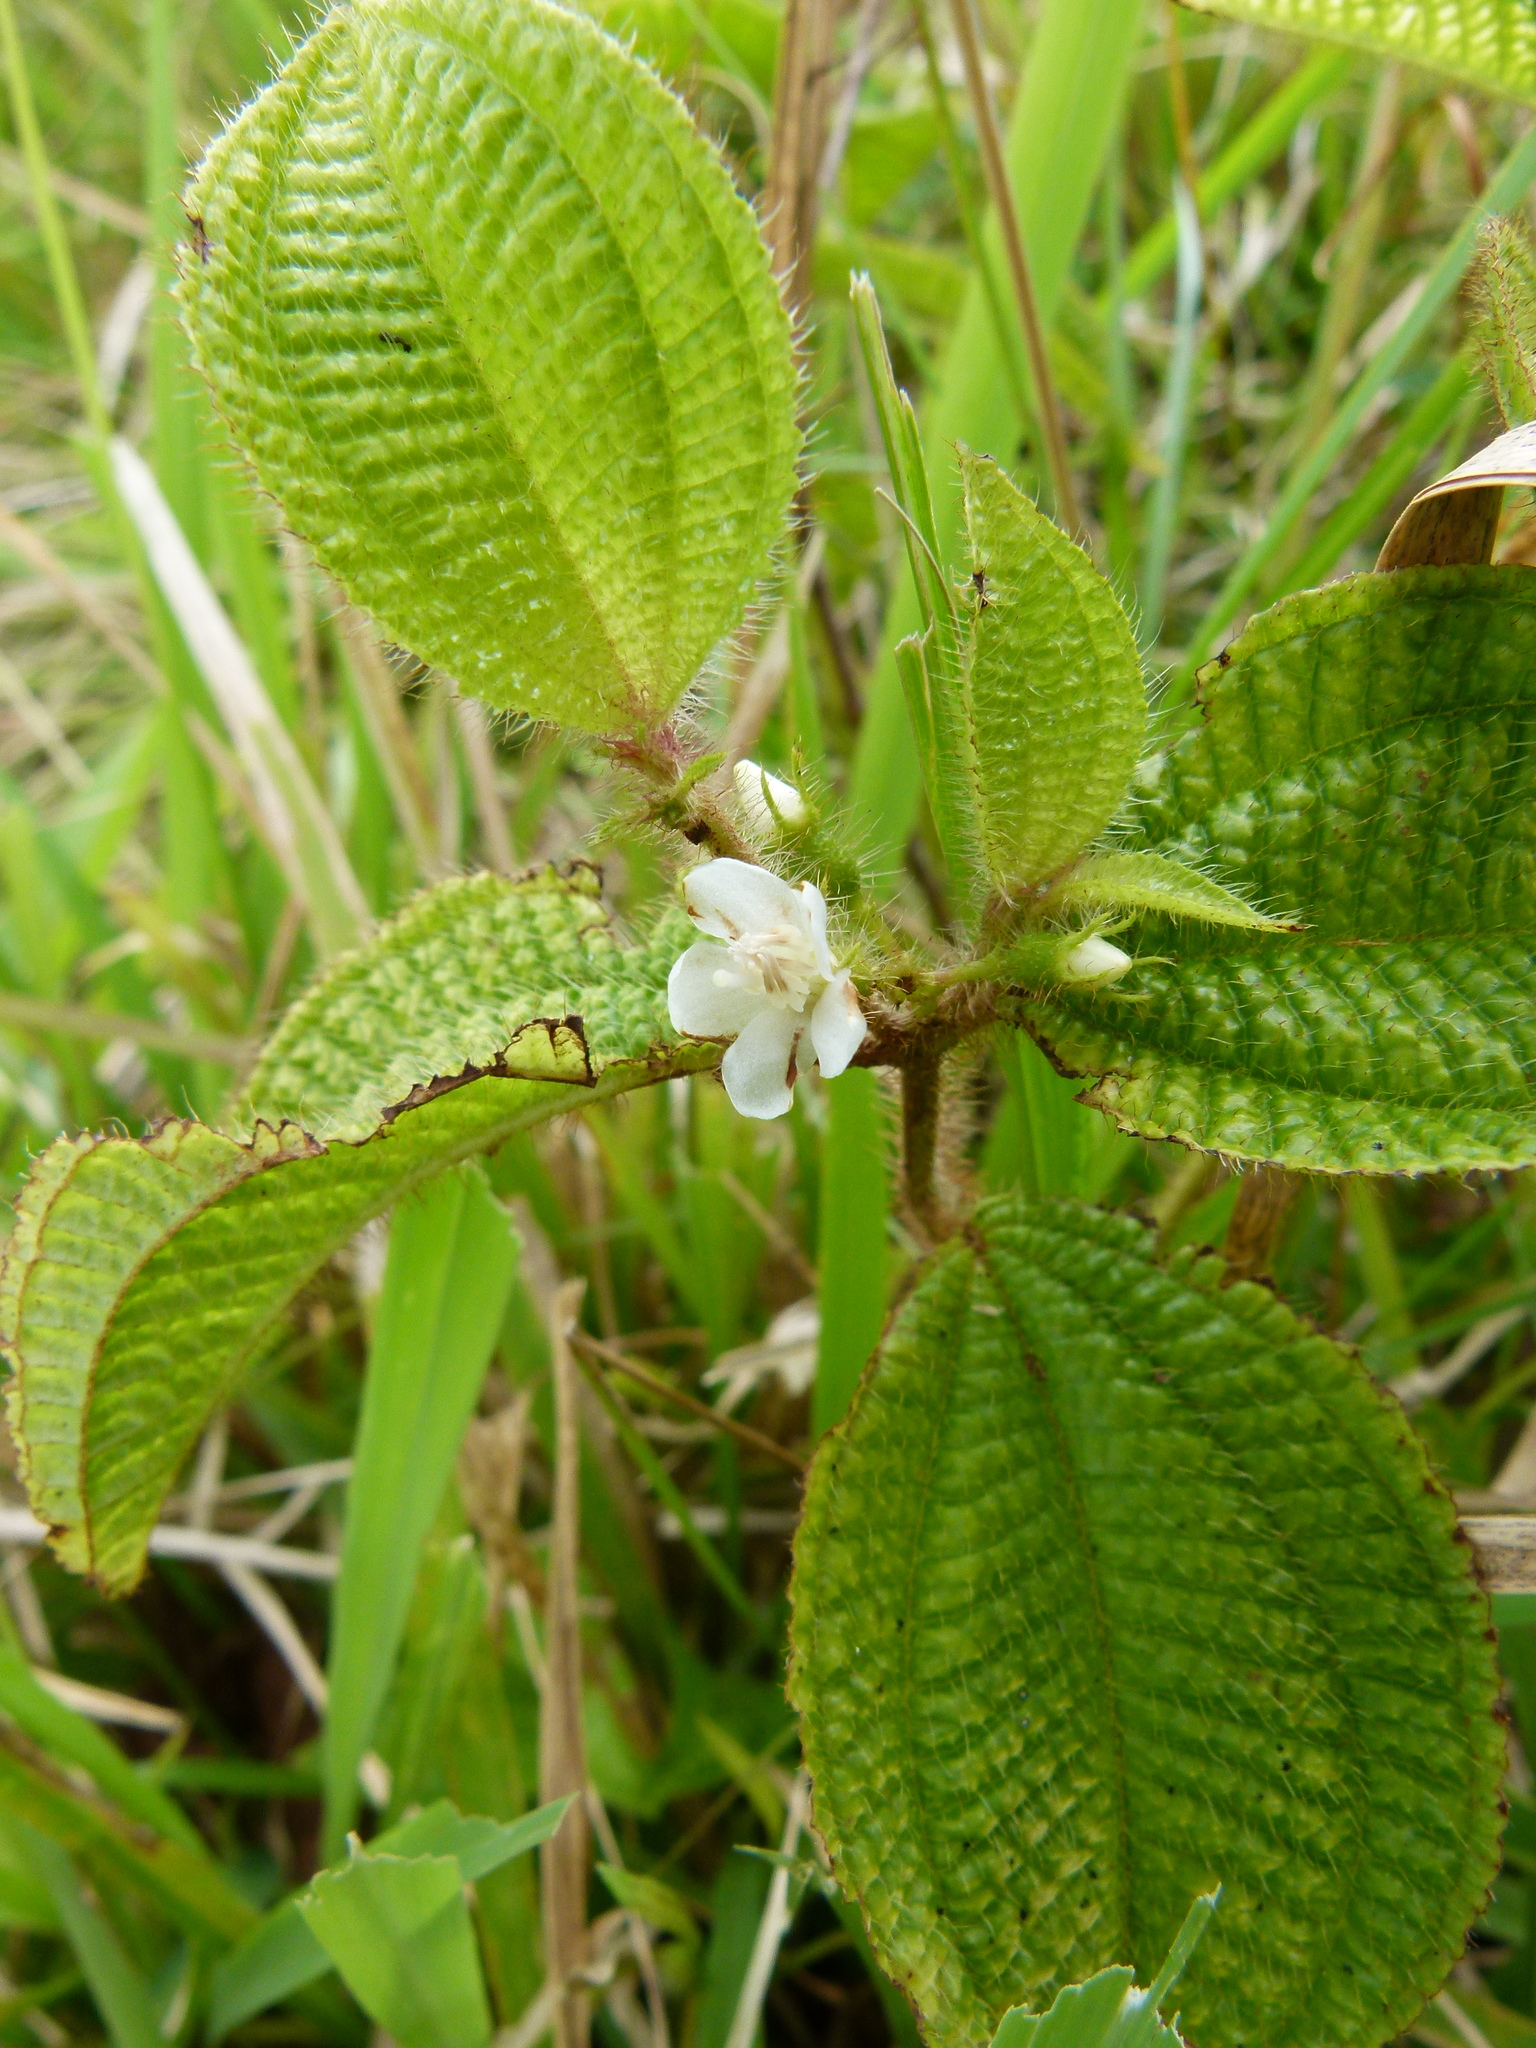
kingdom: Plantae
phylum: Tracheophyta
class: Magnoliopsida
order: Myrtales
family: Melastomataceae
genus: Miconia
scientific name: Miconia crenata
